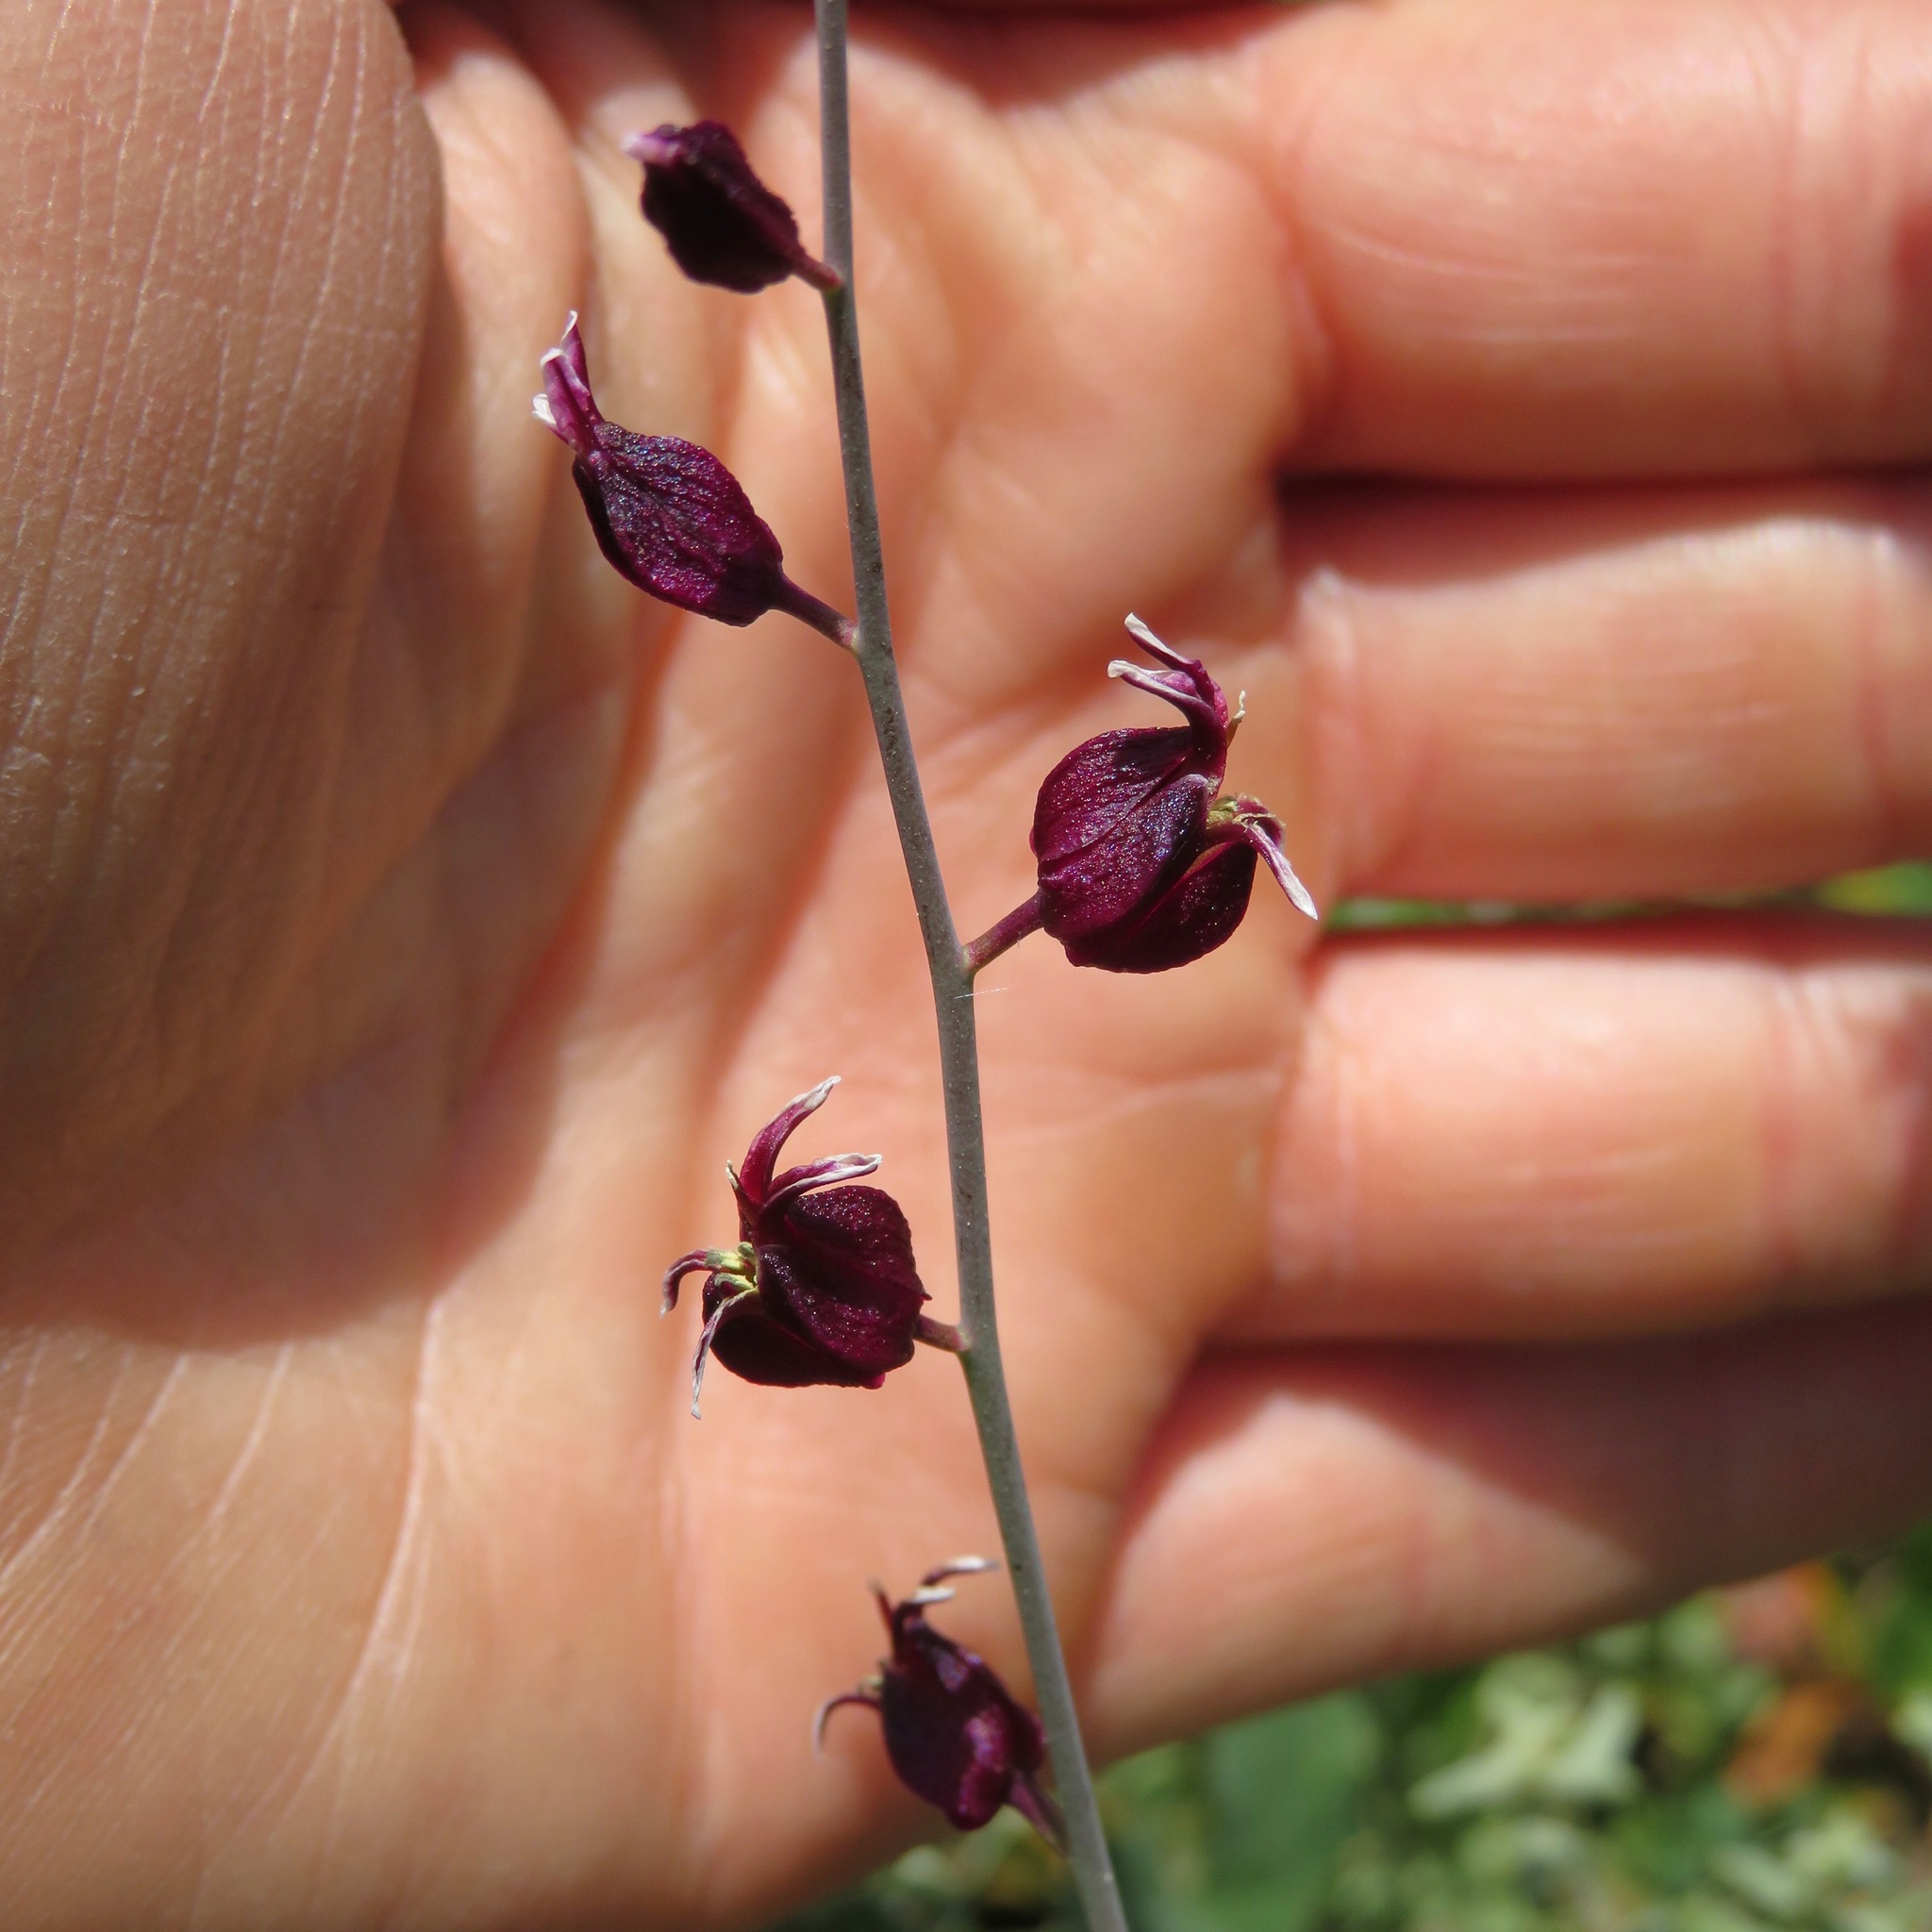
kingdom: Plantae
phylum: Tracheophyta
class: Magnoliopsida
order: Brassicales
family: Brassicaceae
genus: Streptanthus
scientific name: Streptanthus glandulosus
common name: Jewel-flower
